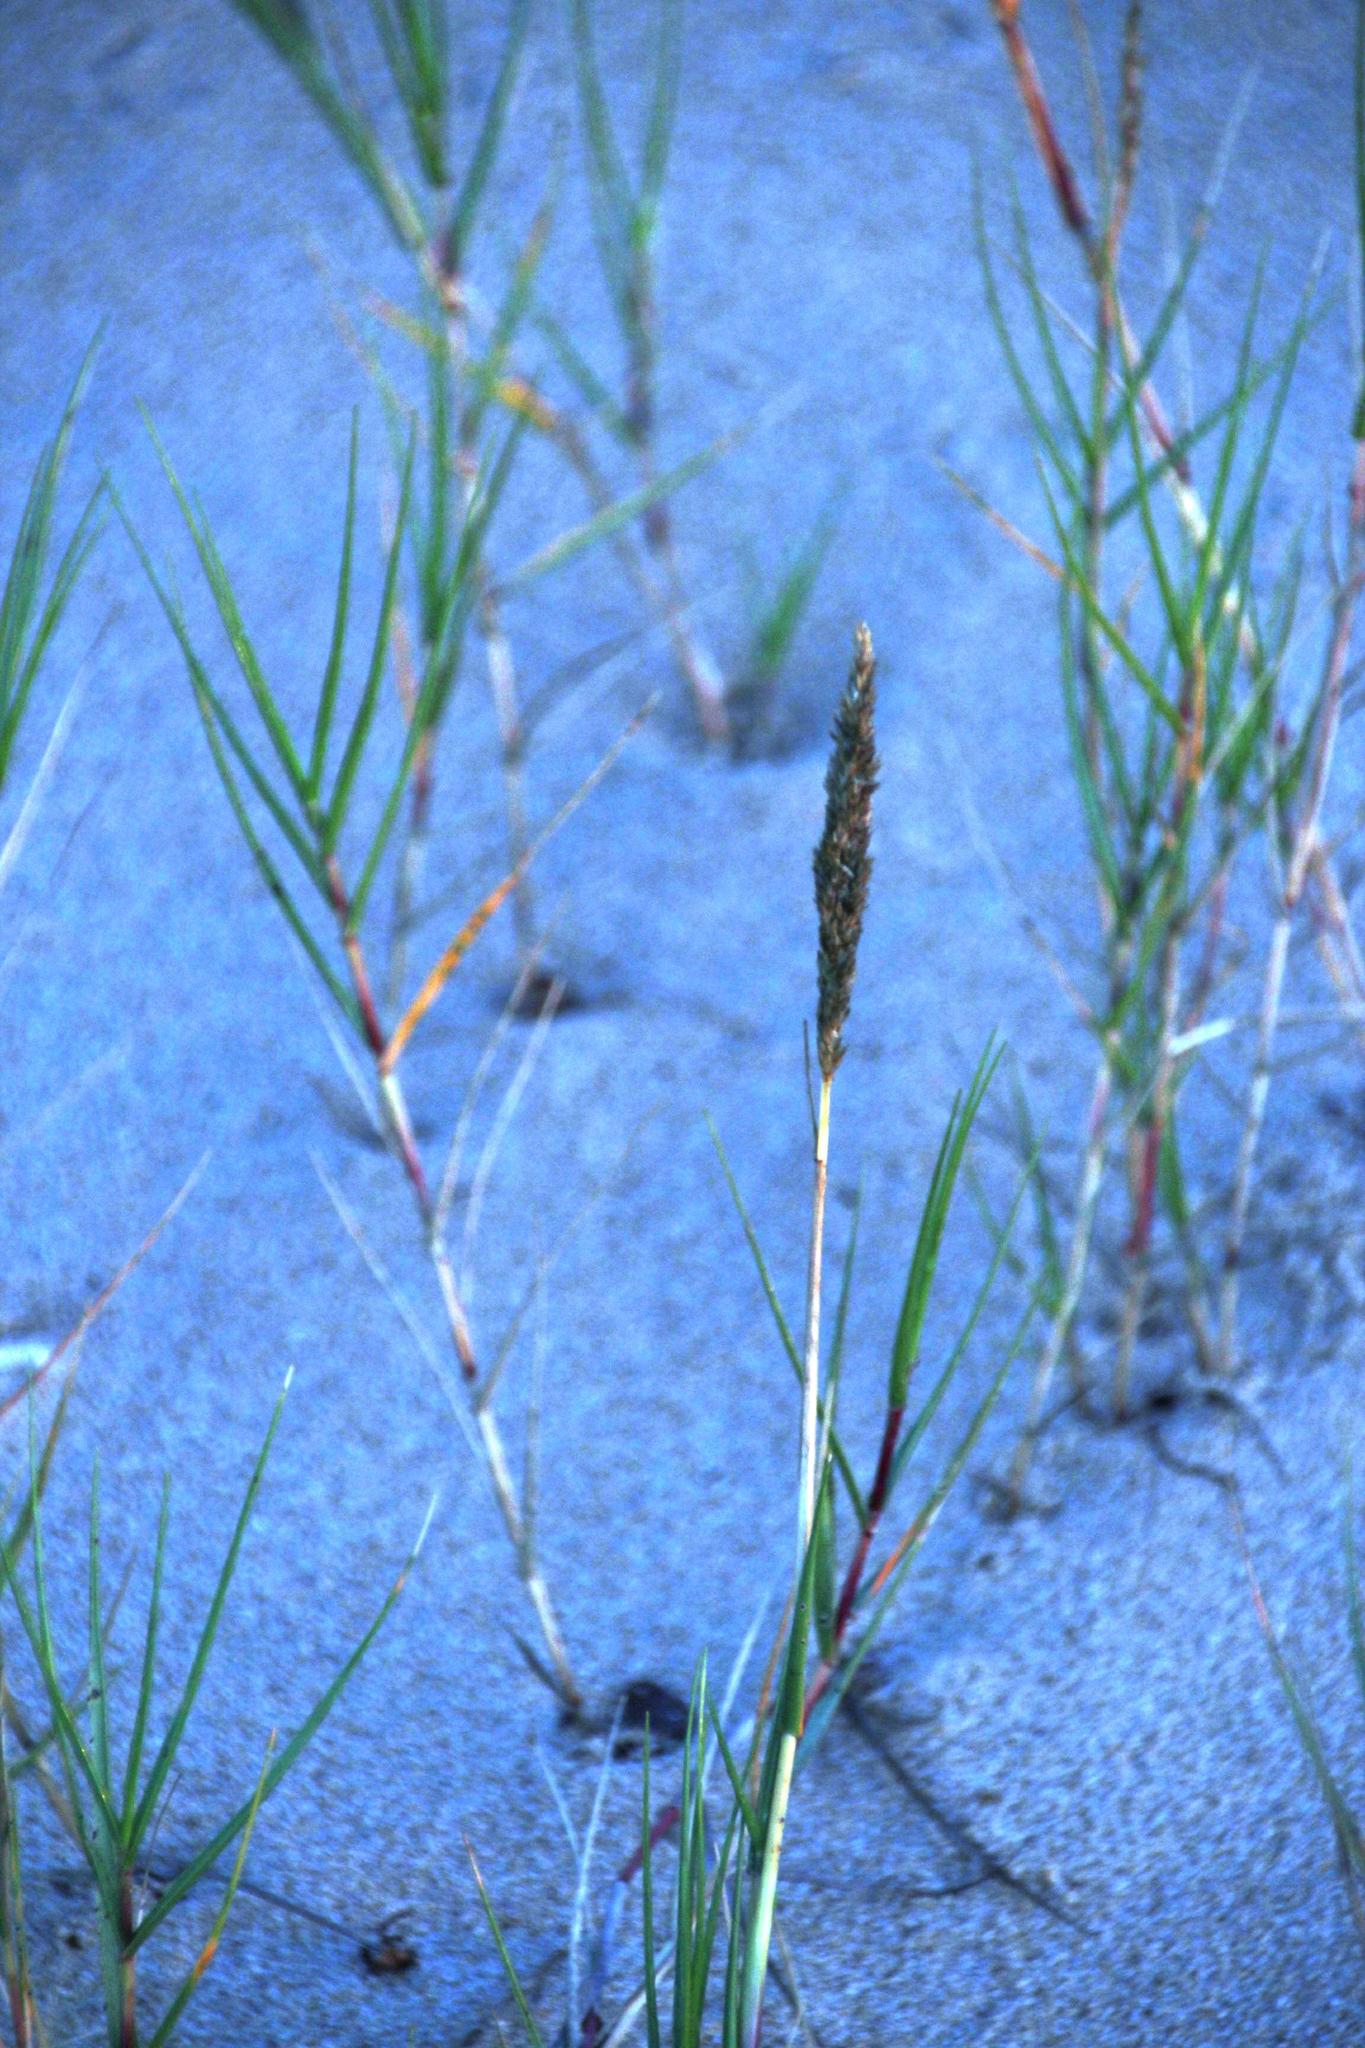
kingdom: Plantae
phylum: Tracheophyta
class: Liliopsida
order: Poales
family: Poaceae
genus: Sporobolus
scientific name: Sporobolus virginicus
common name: Beach dropseed
